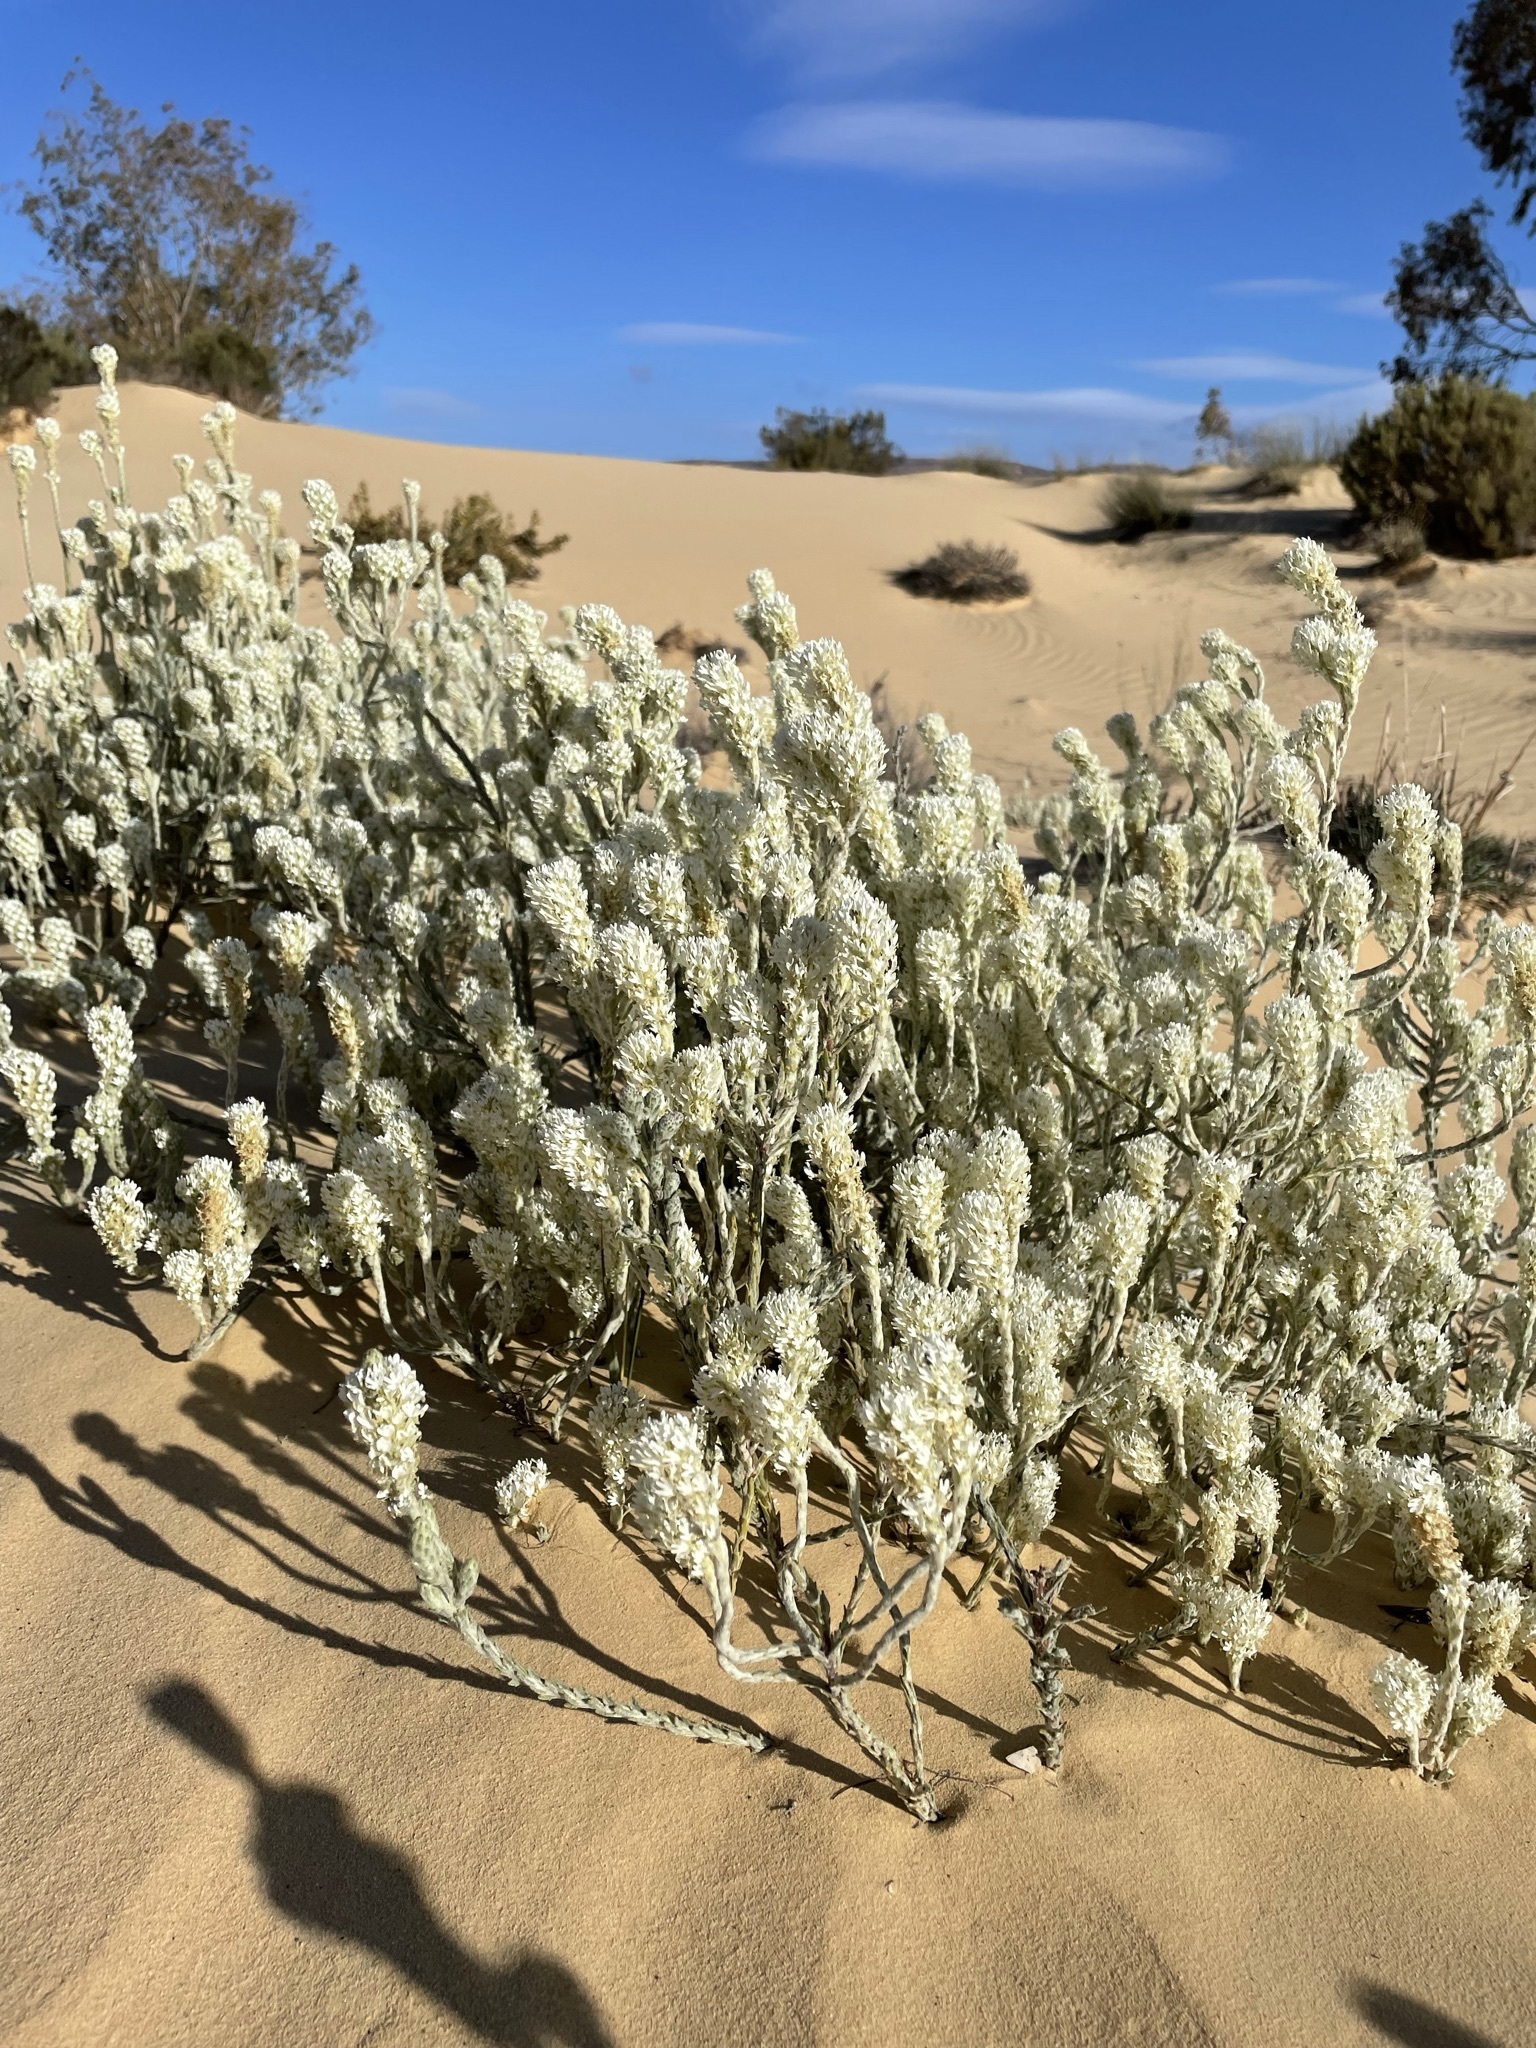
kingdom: Plantae
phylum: Tracheophyta
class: Magnoliopsida
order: Lamiales
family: Scrophulariaceae
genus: Dischisma
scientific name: Dischisma tomentosum
